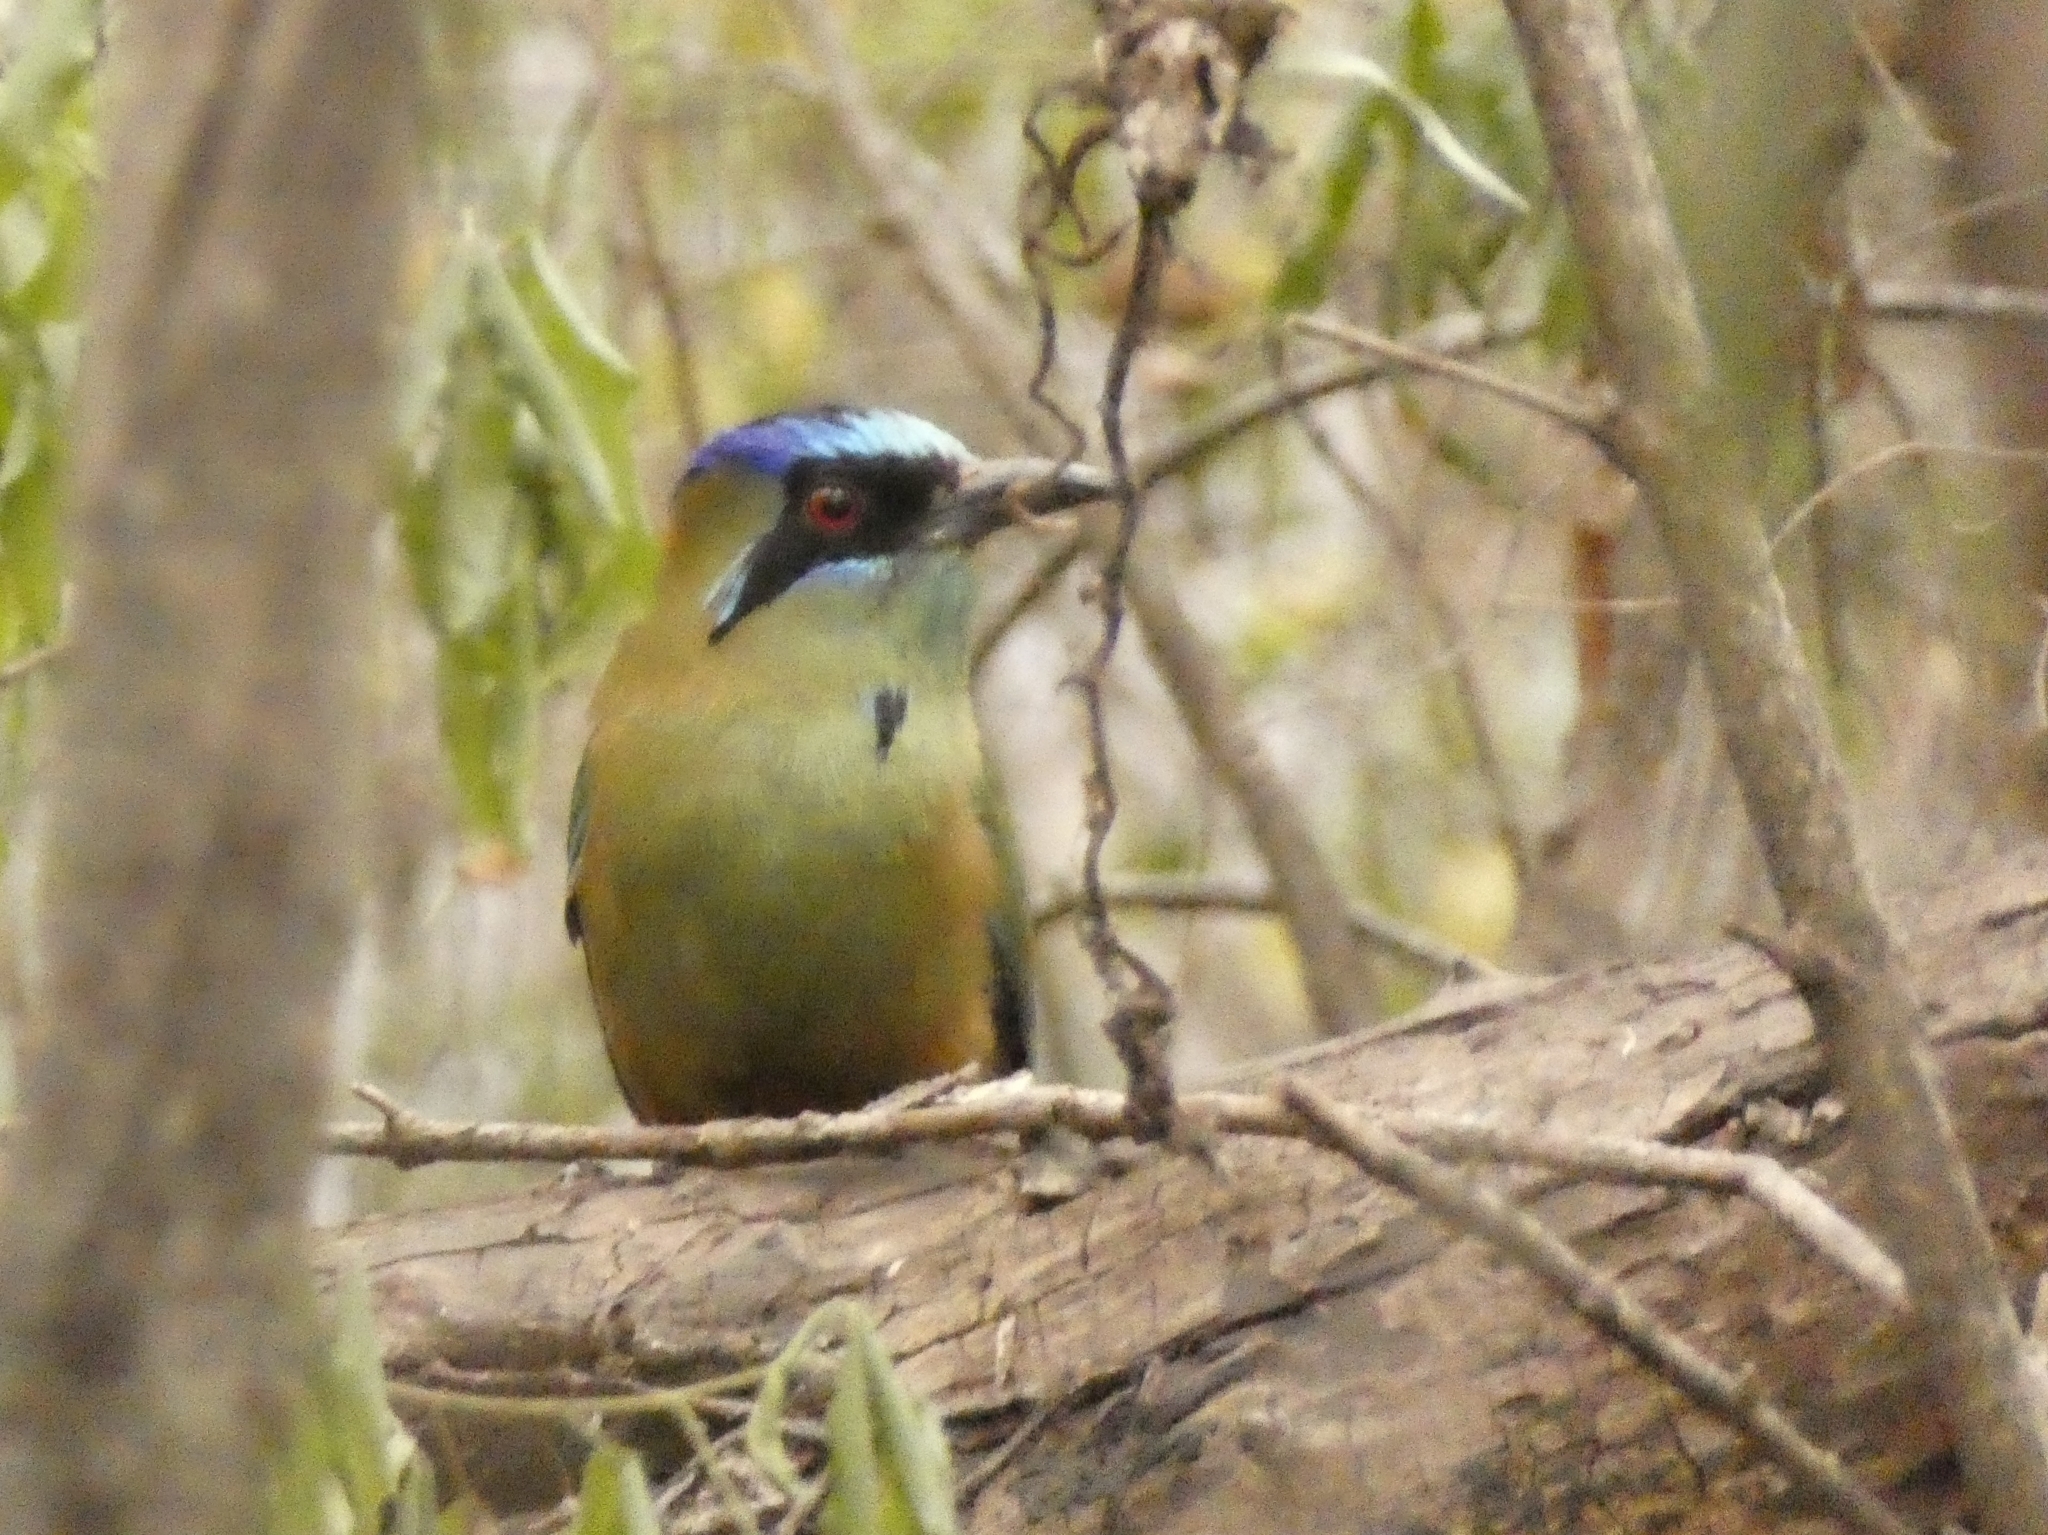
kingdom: Animalia
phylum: Chordata
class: Aves
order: Coraciiformes
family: Momotidae
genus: Momotus
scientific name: Momotus momota
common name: Amazonian motmot
